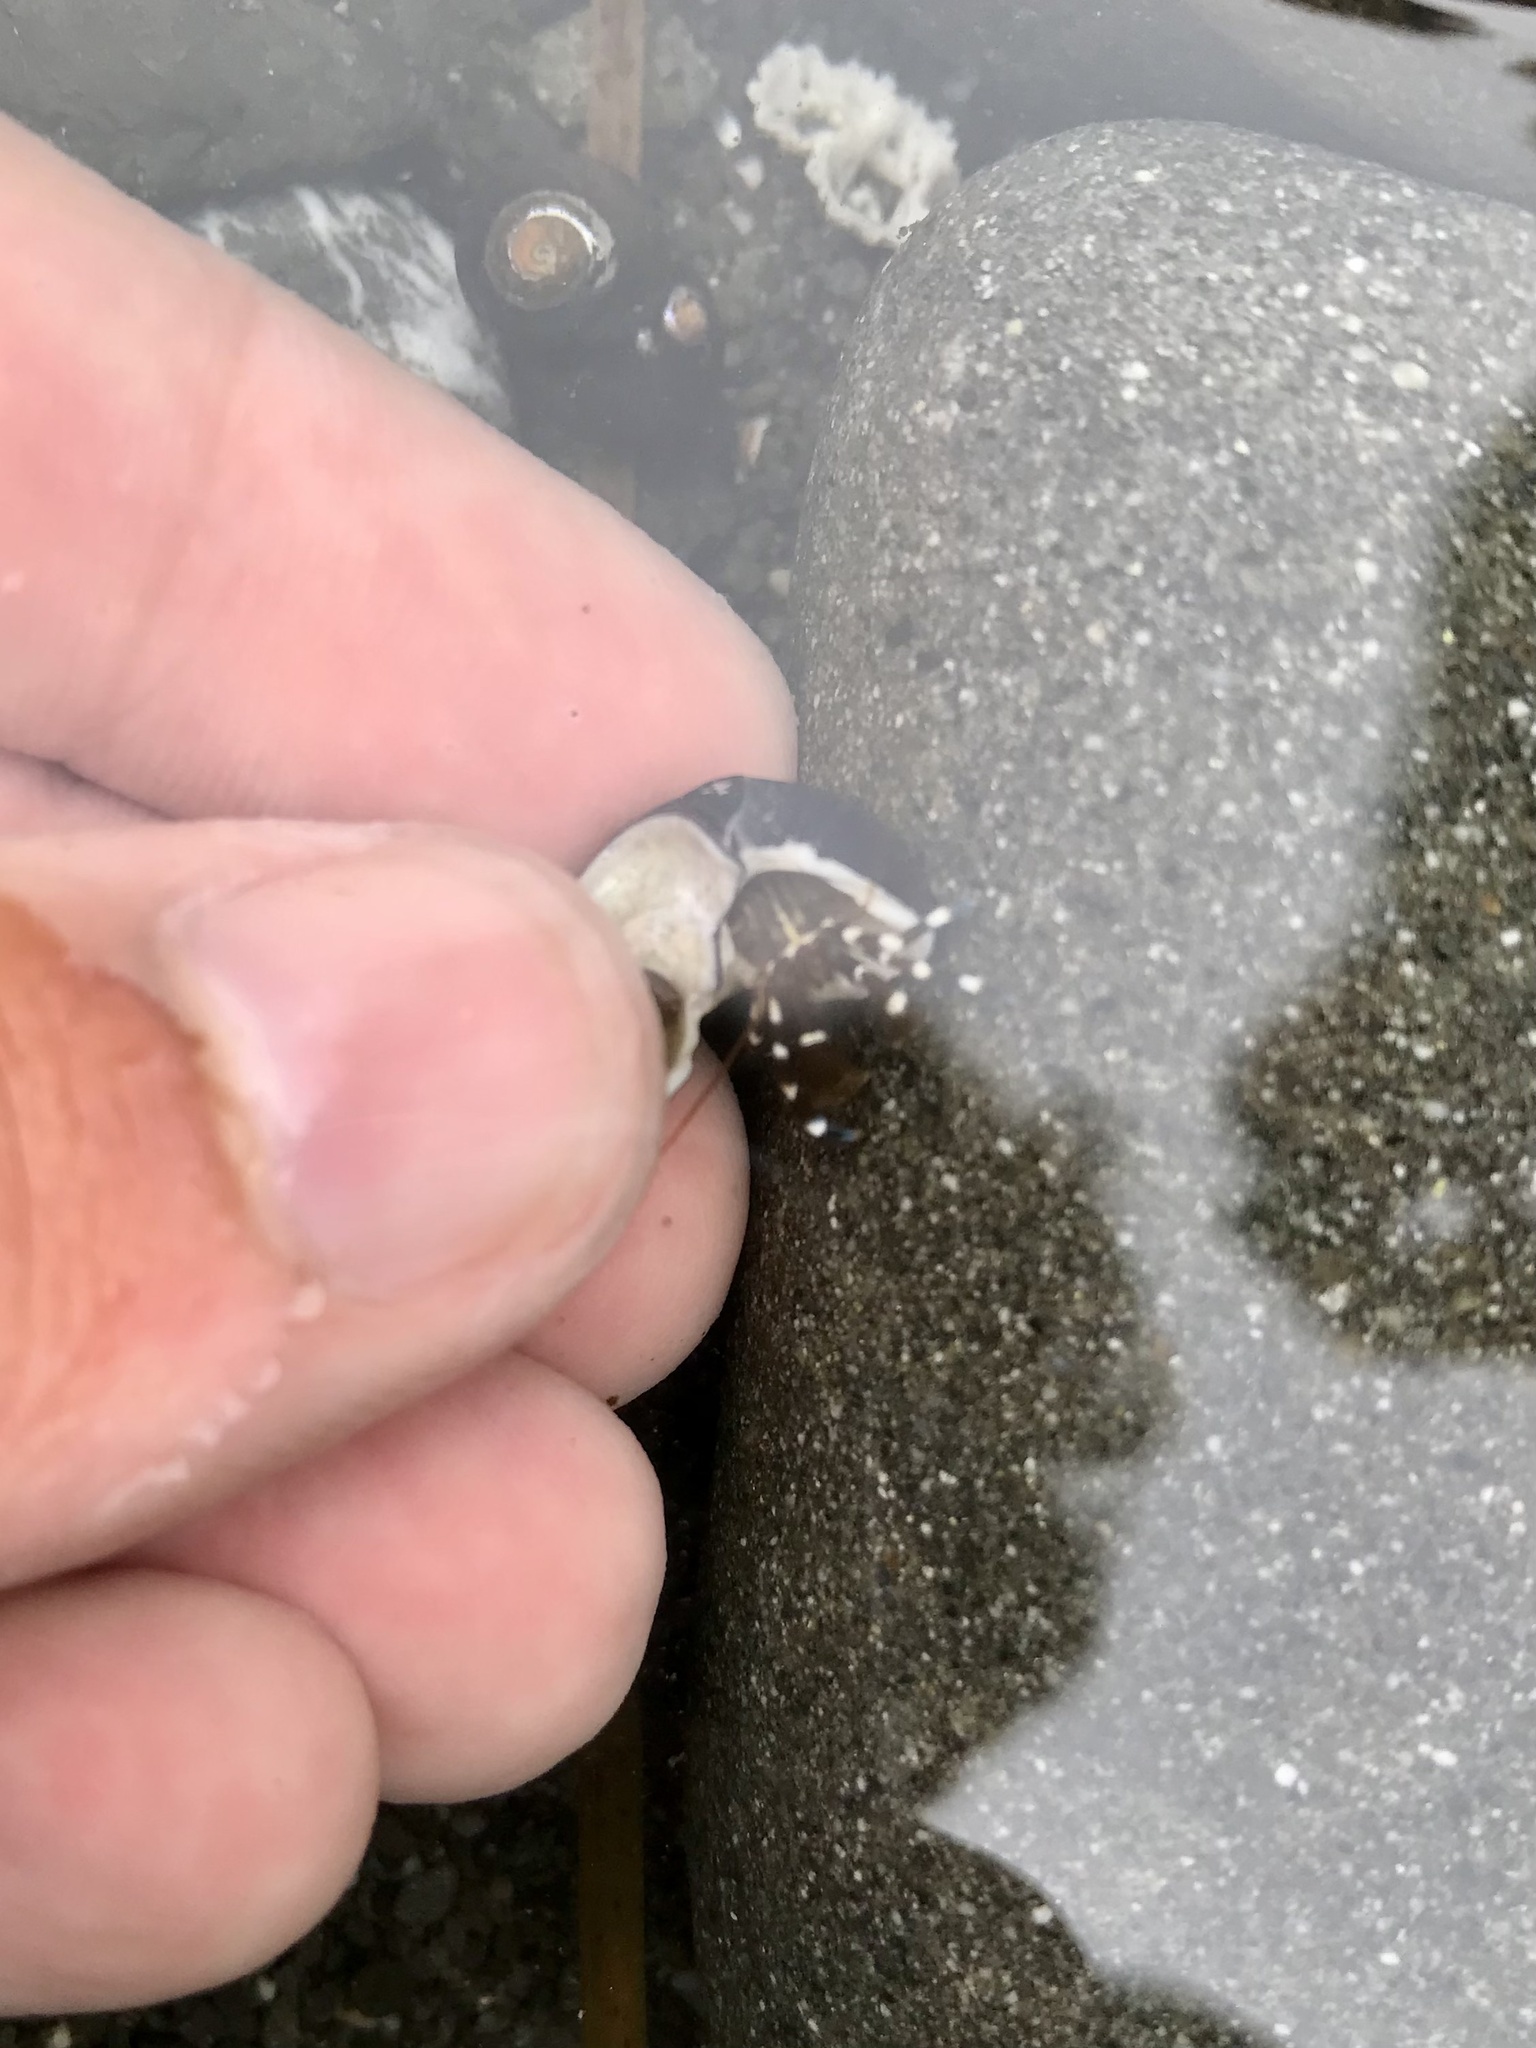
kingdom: Animalia
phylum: Arthropoda
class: Malacostraca
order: Decapoda
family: Paguridae
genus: Pagurus
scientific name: Pagurus samuelis
